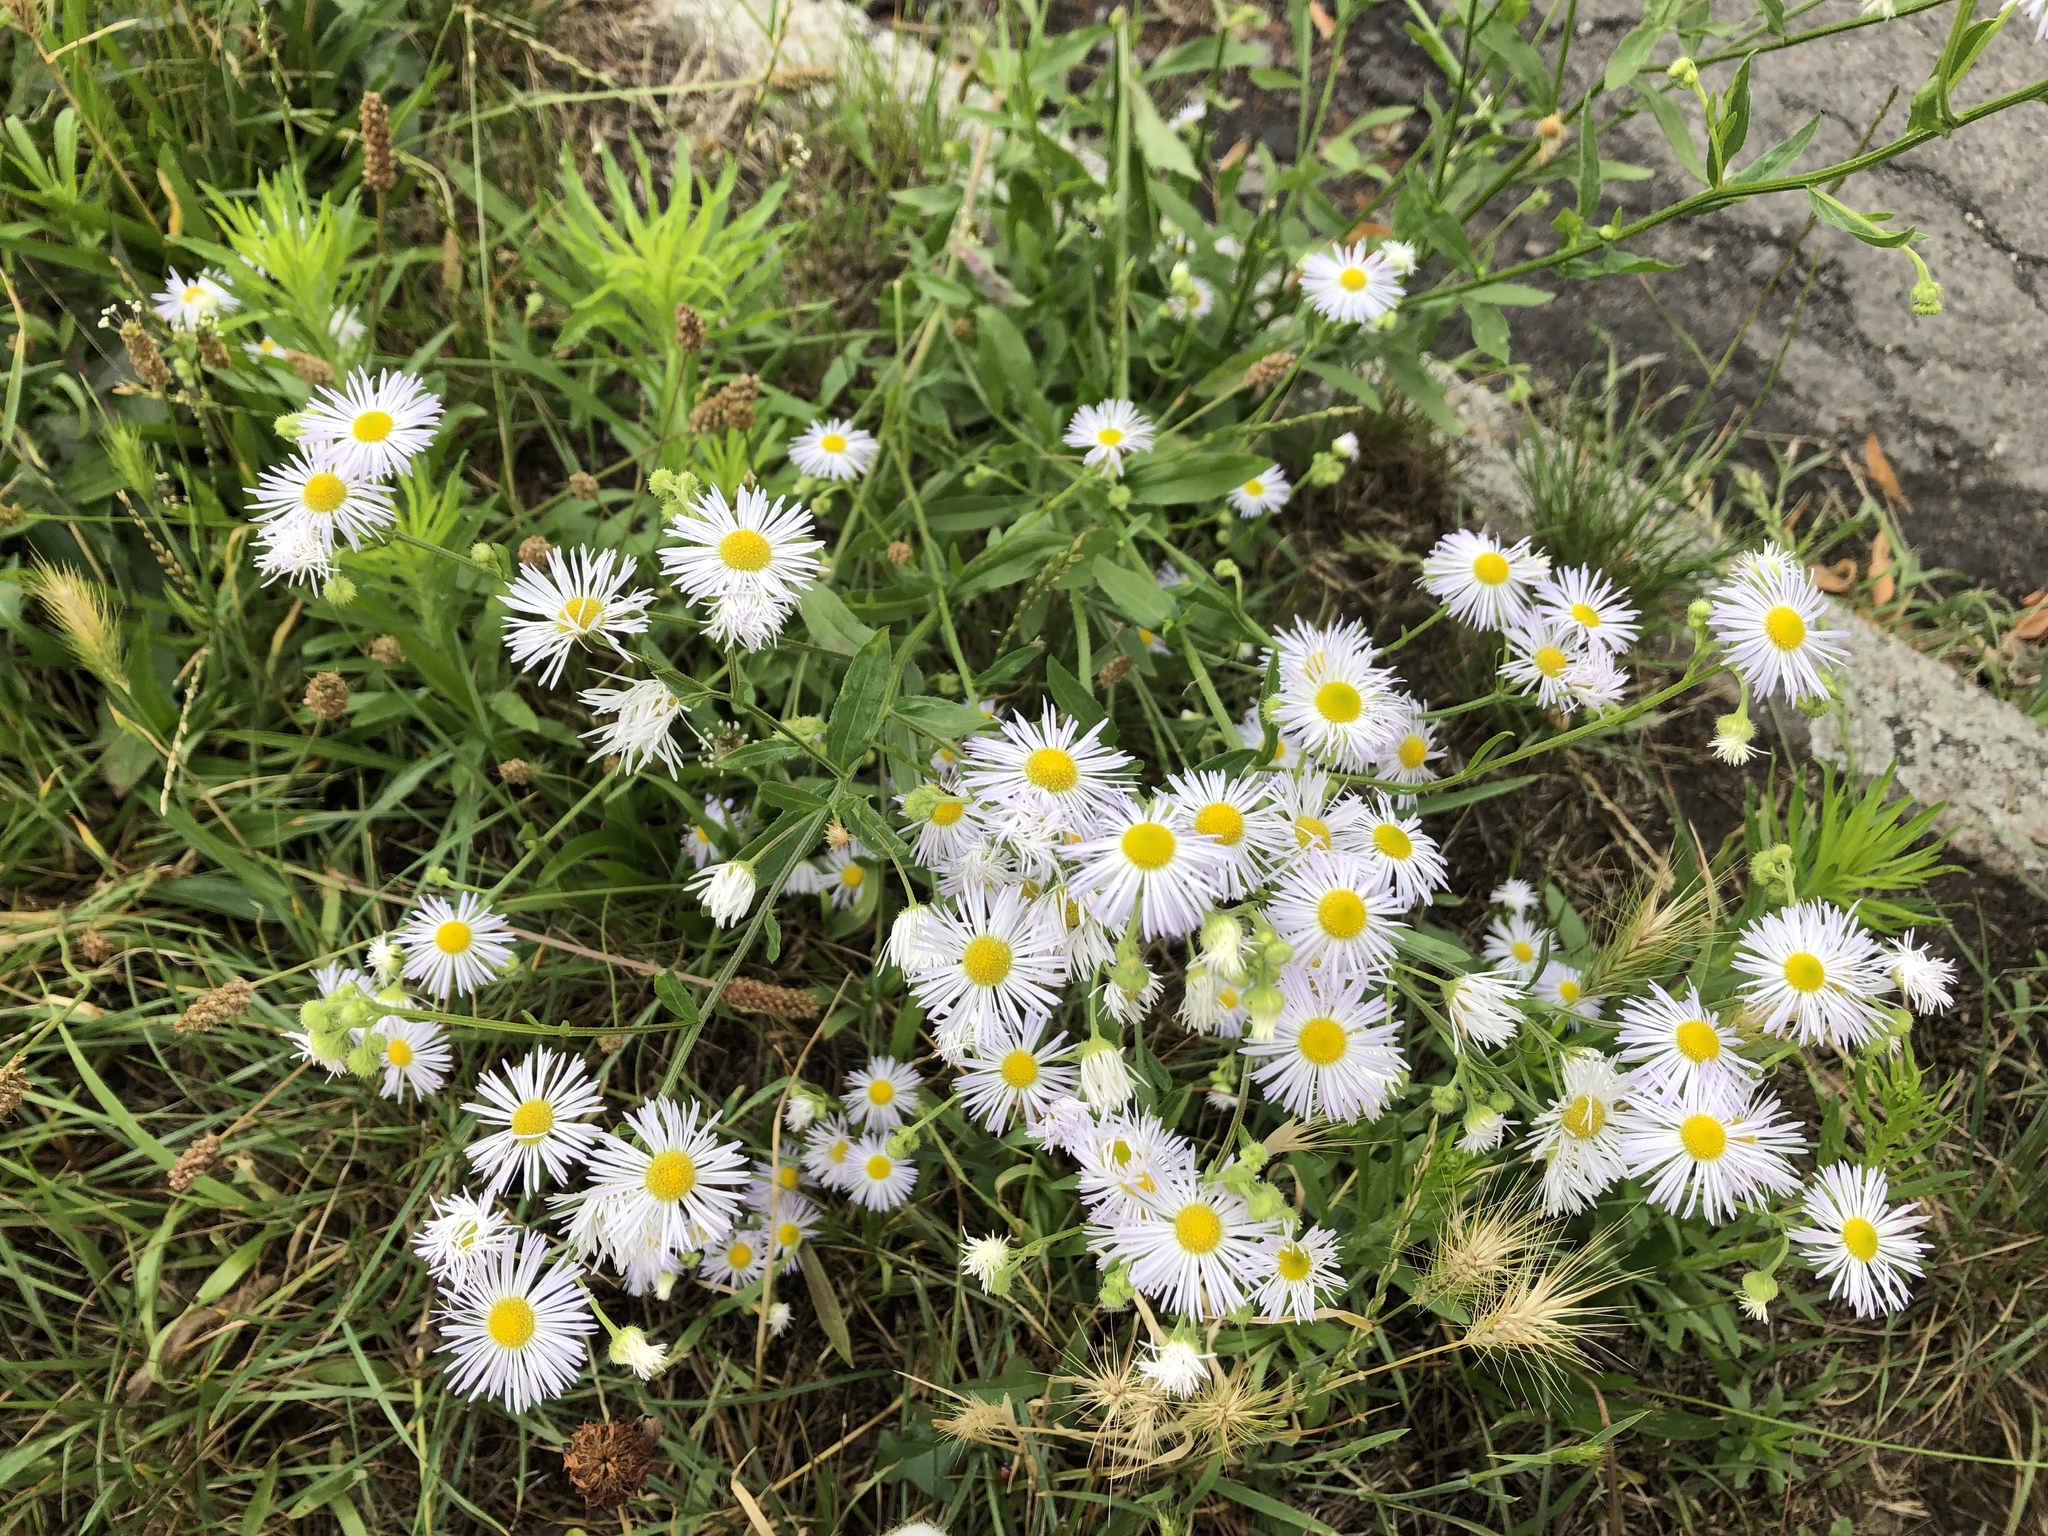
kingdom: Plantae
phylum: Tracheophyta
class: Magnoliopsida
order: Asterales
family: Asteraceae
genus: Erigeron
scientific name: Erigeron annuus
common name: Tall fleabane
